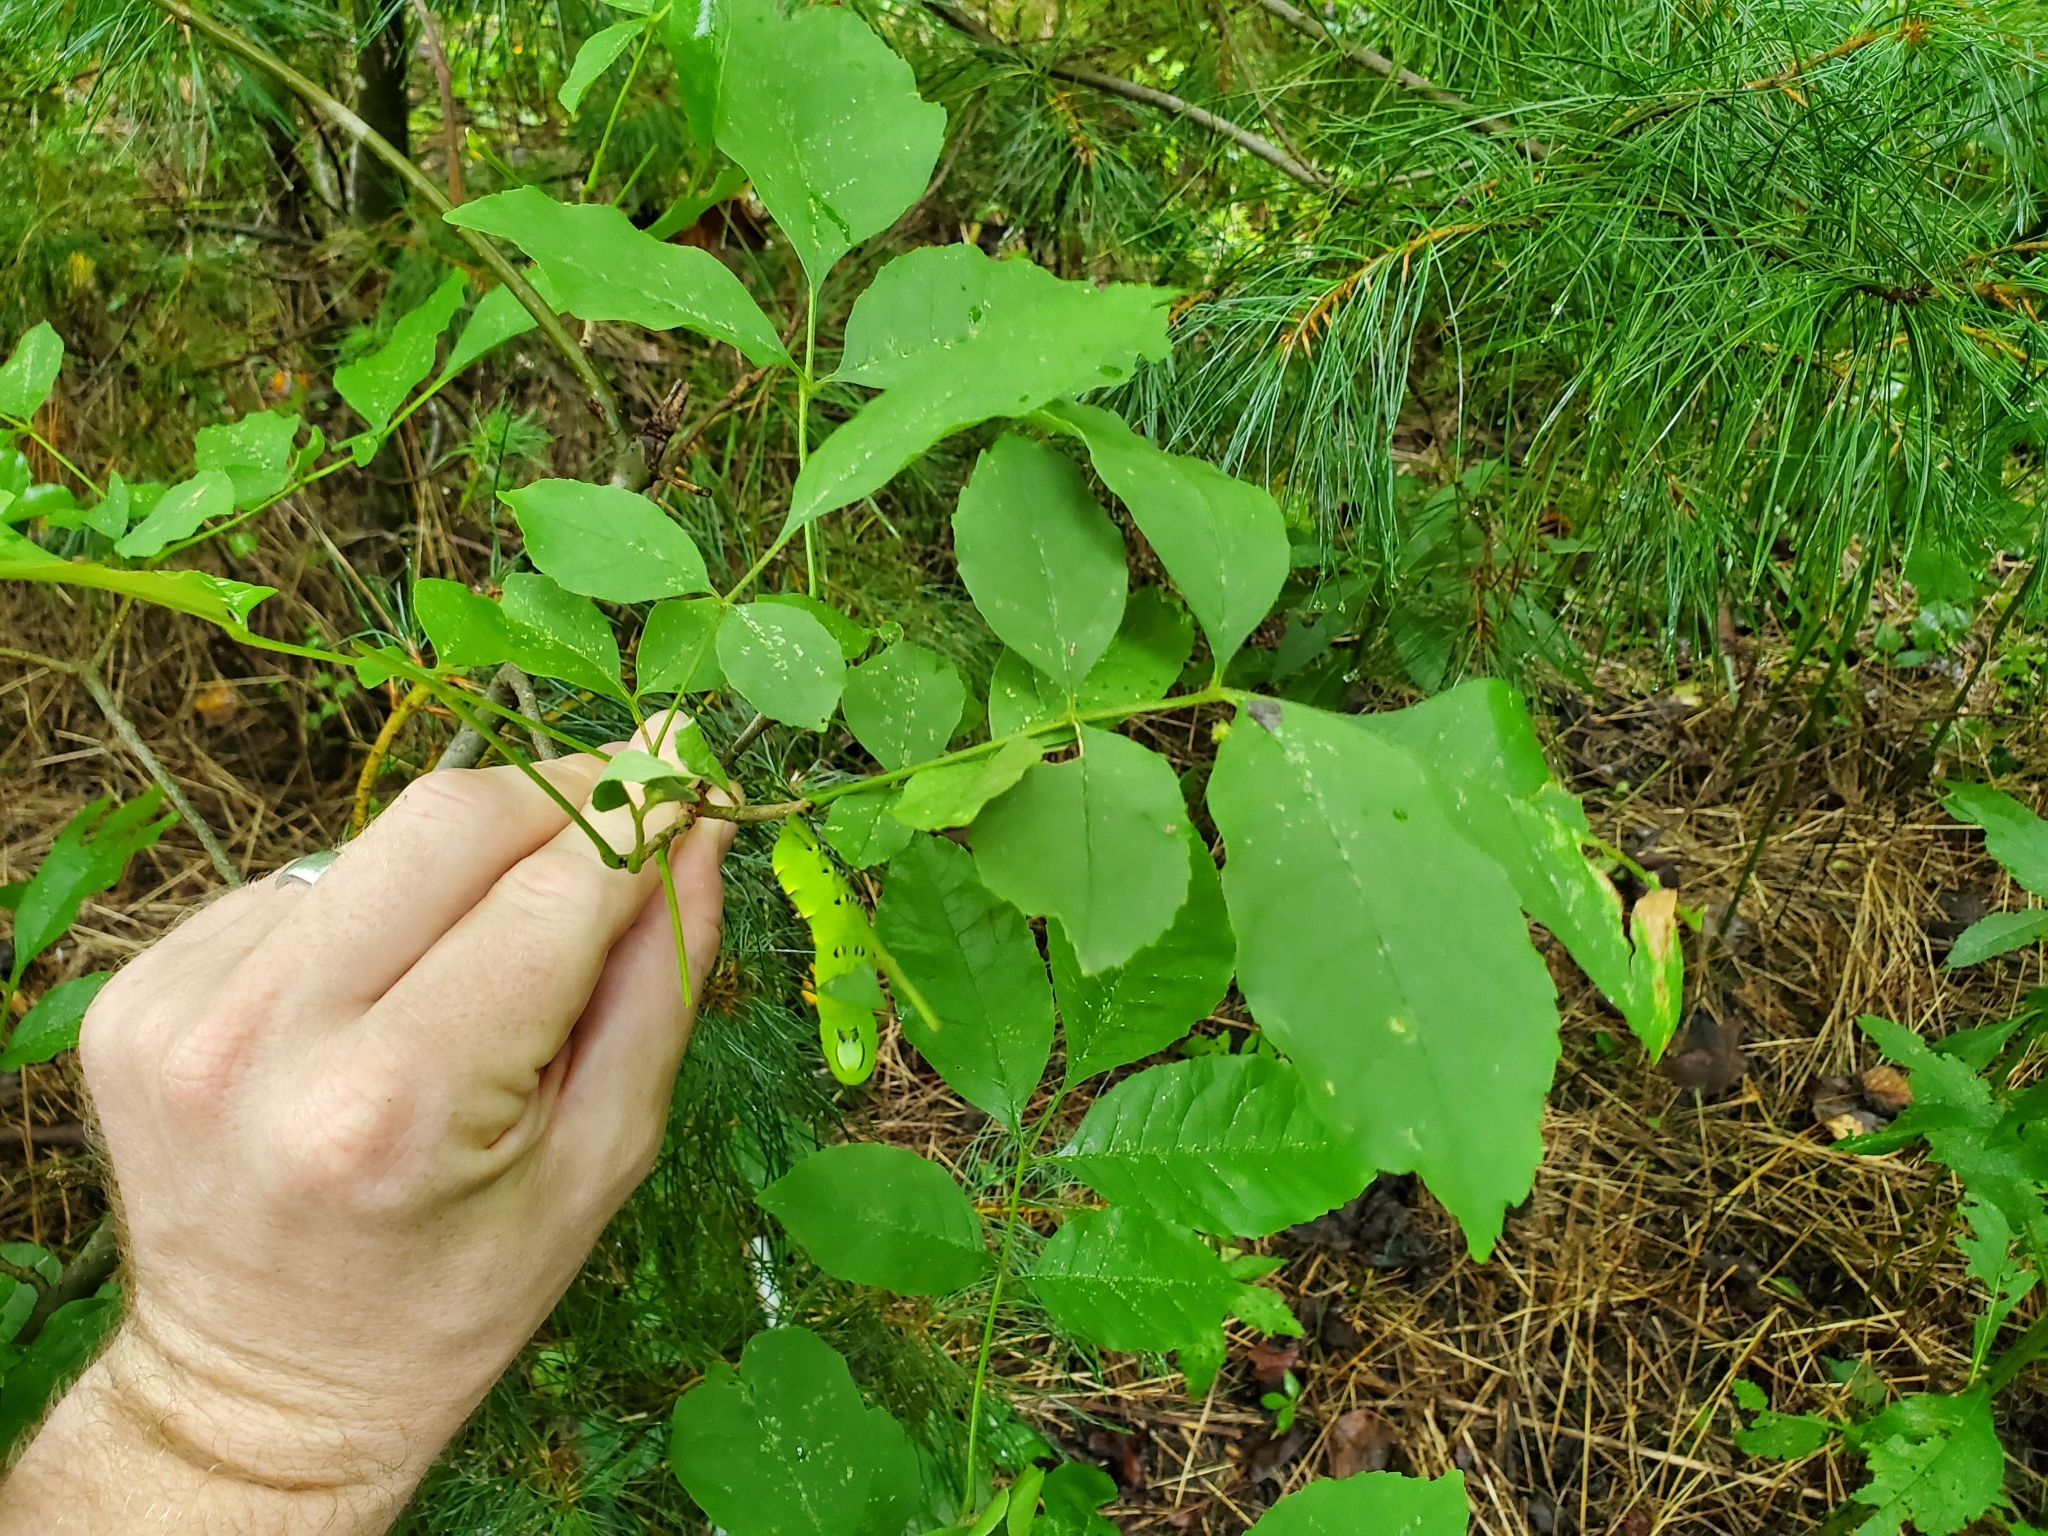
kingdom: Animalia
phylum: Arthropoda
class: Insecta
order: Lepidoptera
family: Sphingidae
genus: Sphinx
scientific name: Sphinx kalmiae
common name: Laurel sphinx
